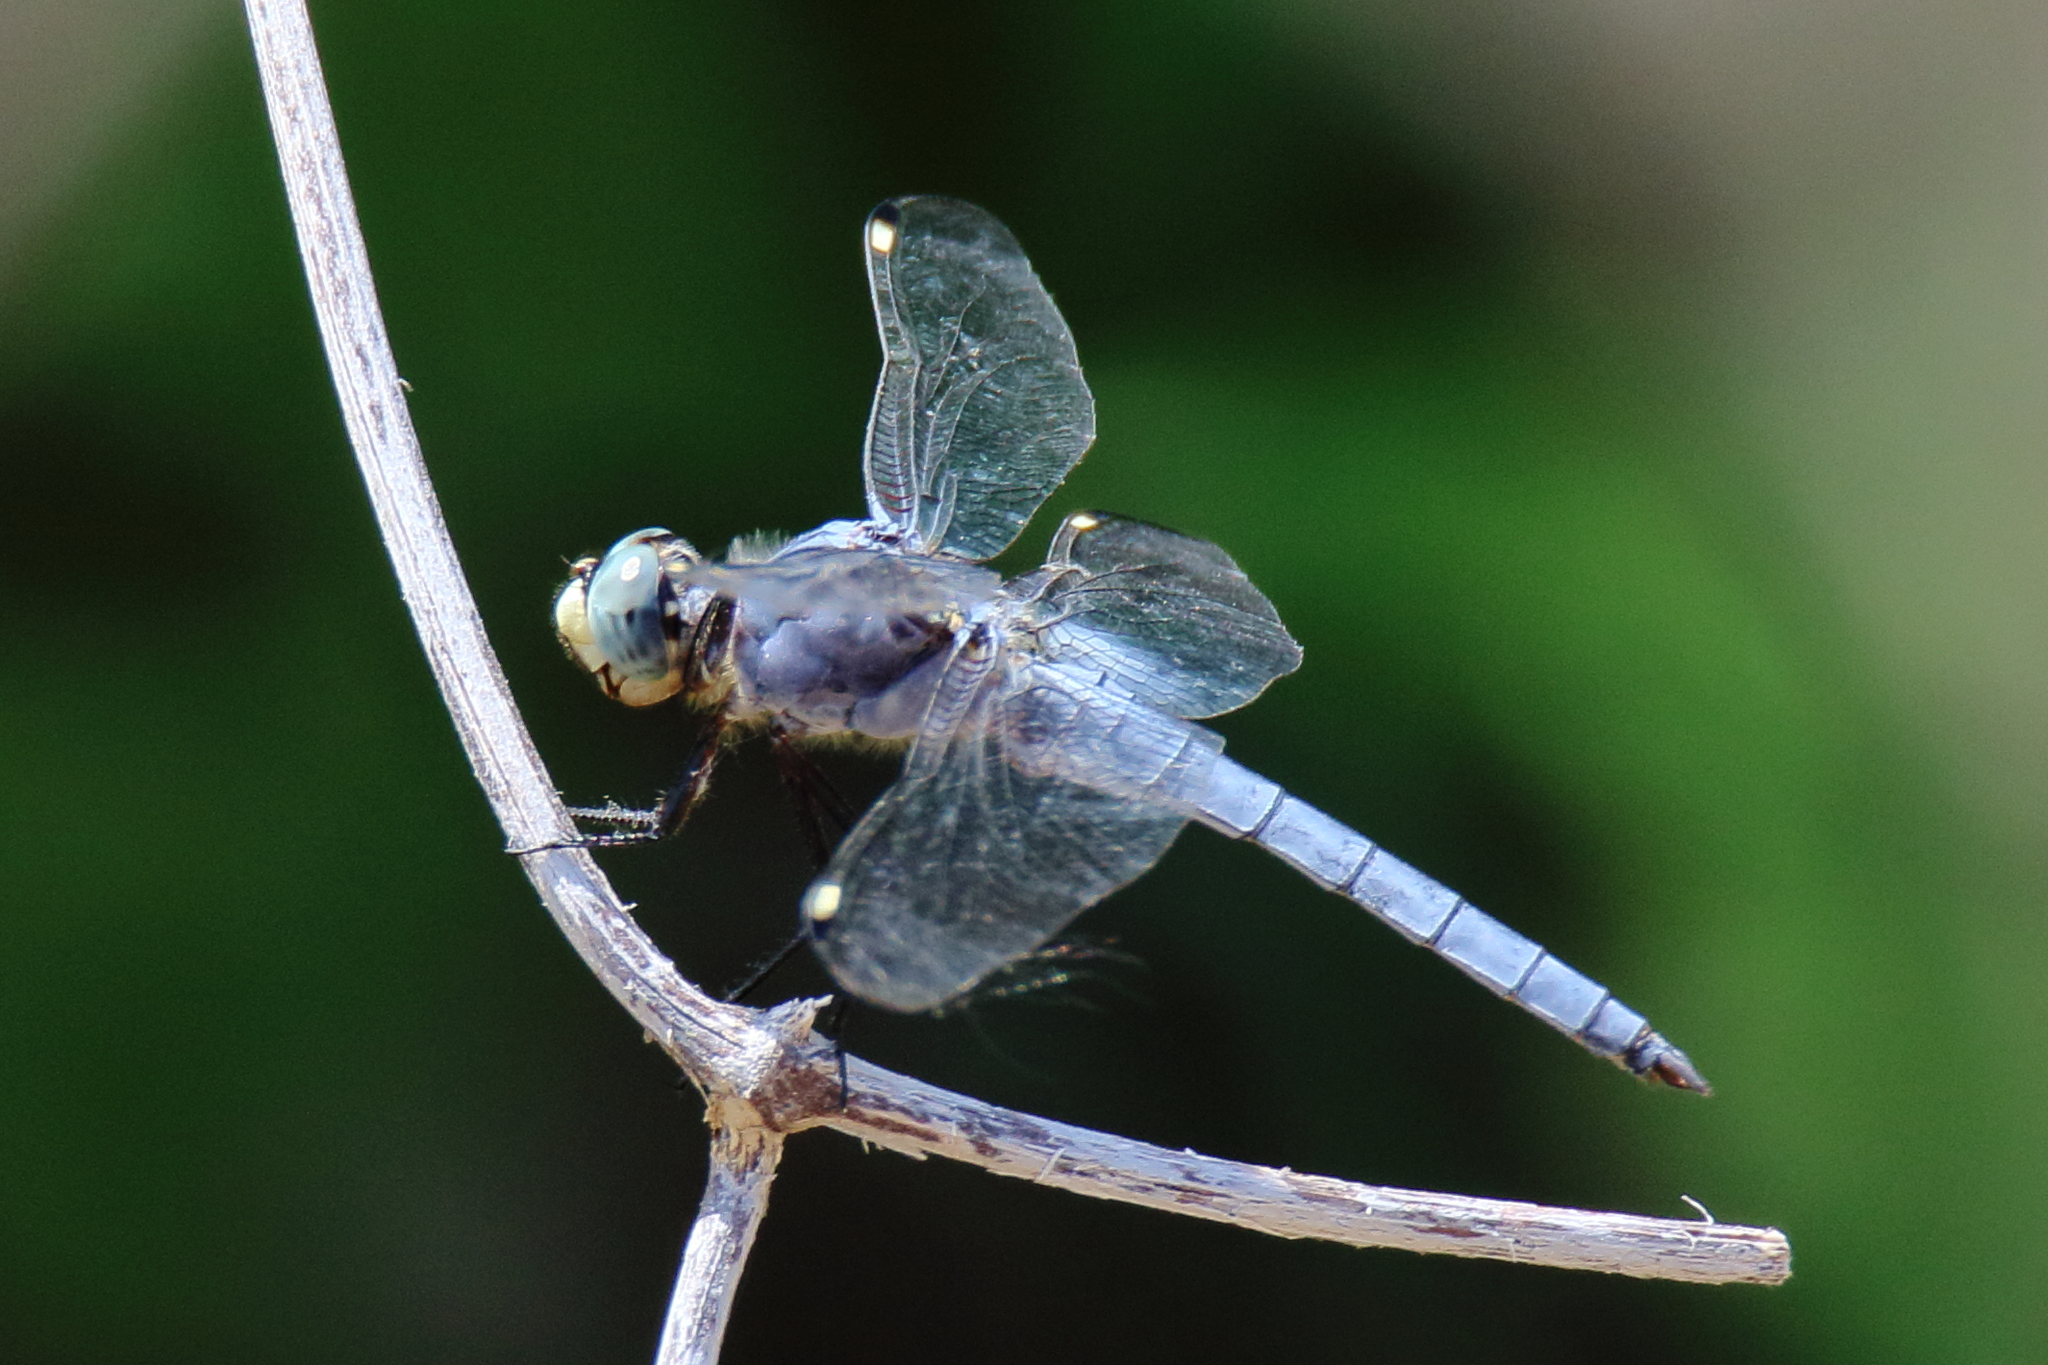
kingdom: Animalia
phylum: Arthropoda
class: Insecta
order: Odonata
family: Libellulidae
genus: Libellula
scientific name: Libellula comanche
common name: Comanche skimmer
